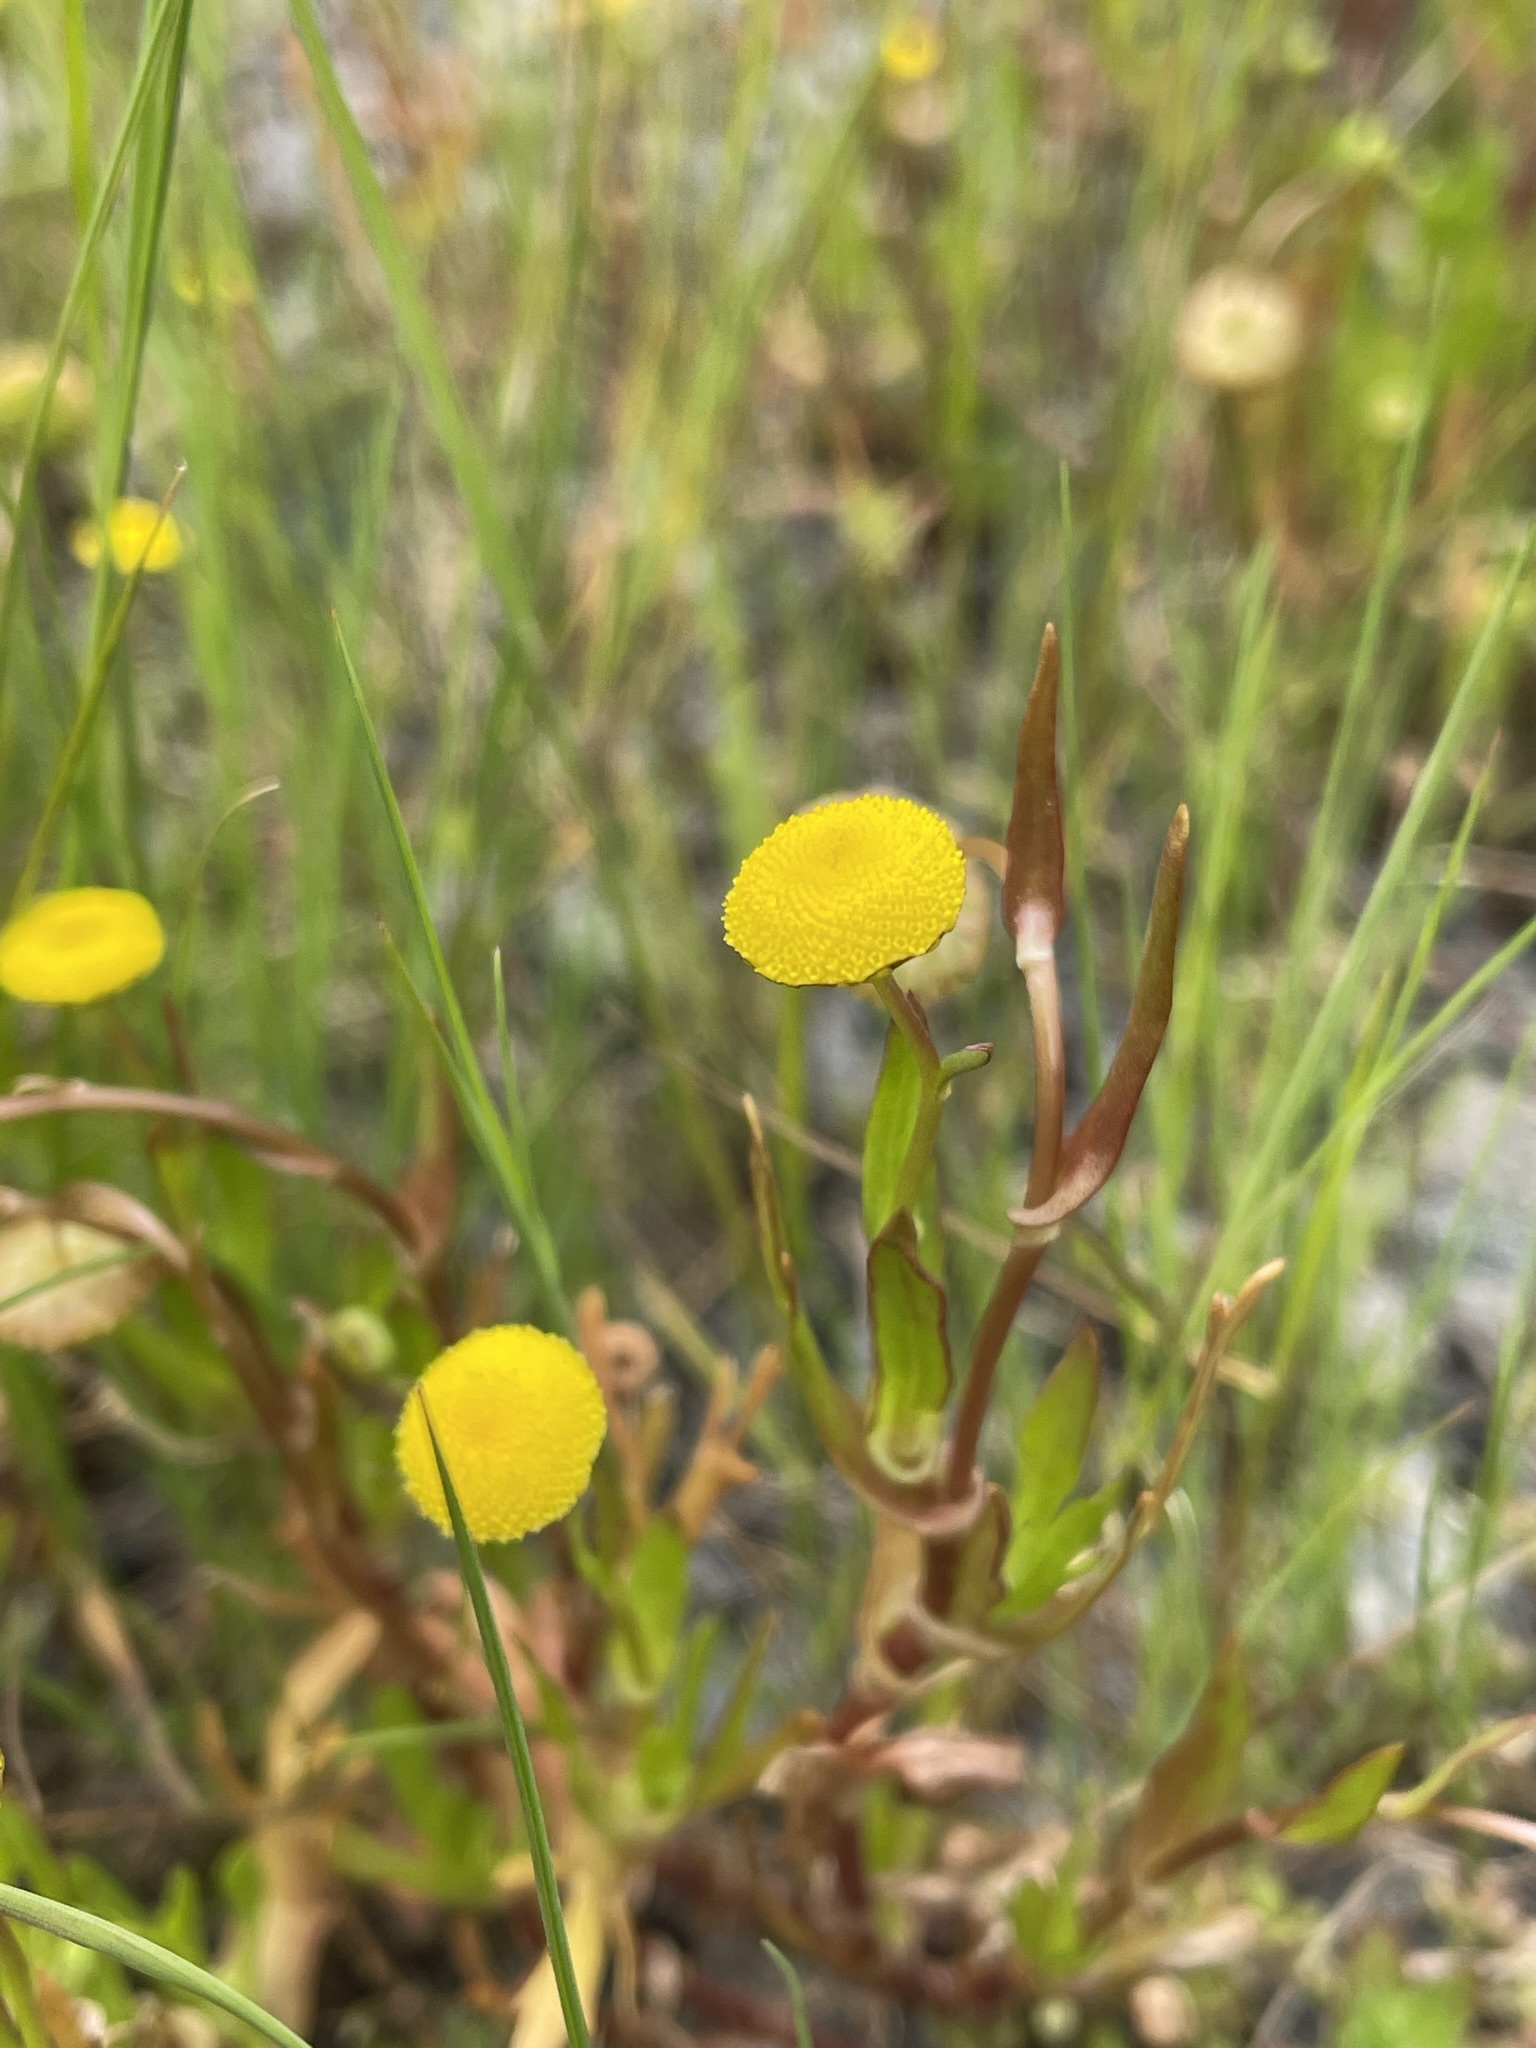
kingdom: Plantae
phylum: Tracheophyta
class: Magnoliopsida
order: Asterales
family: Asteraceae
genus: Cotula
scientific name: Cotula coronopifolia
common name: Buttonweed
